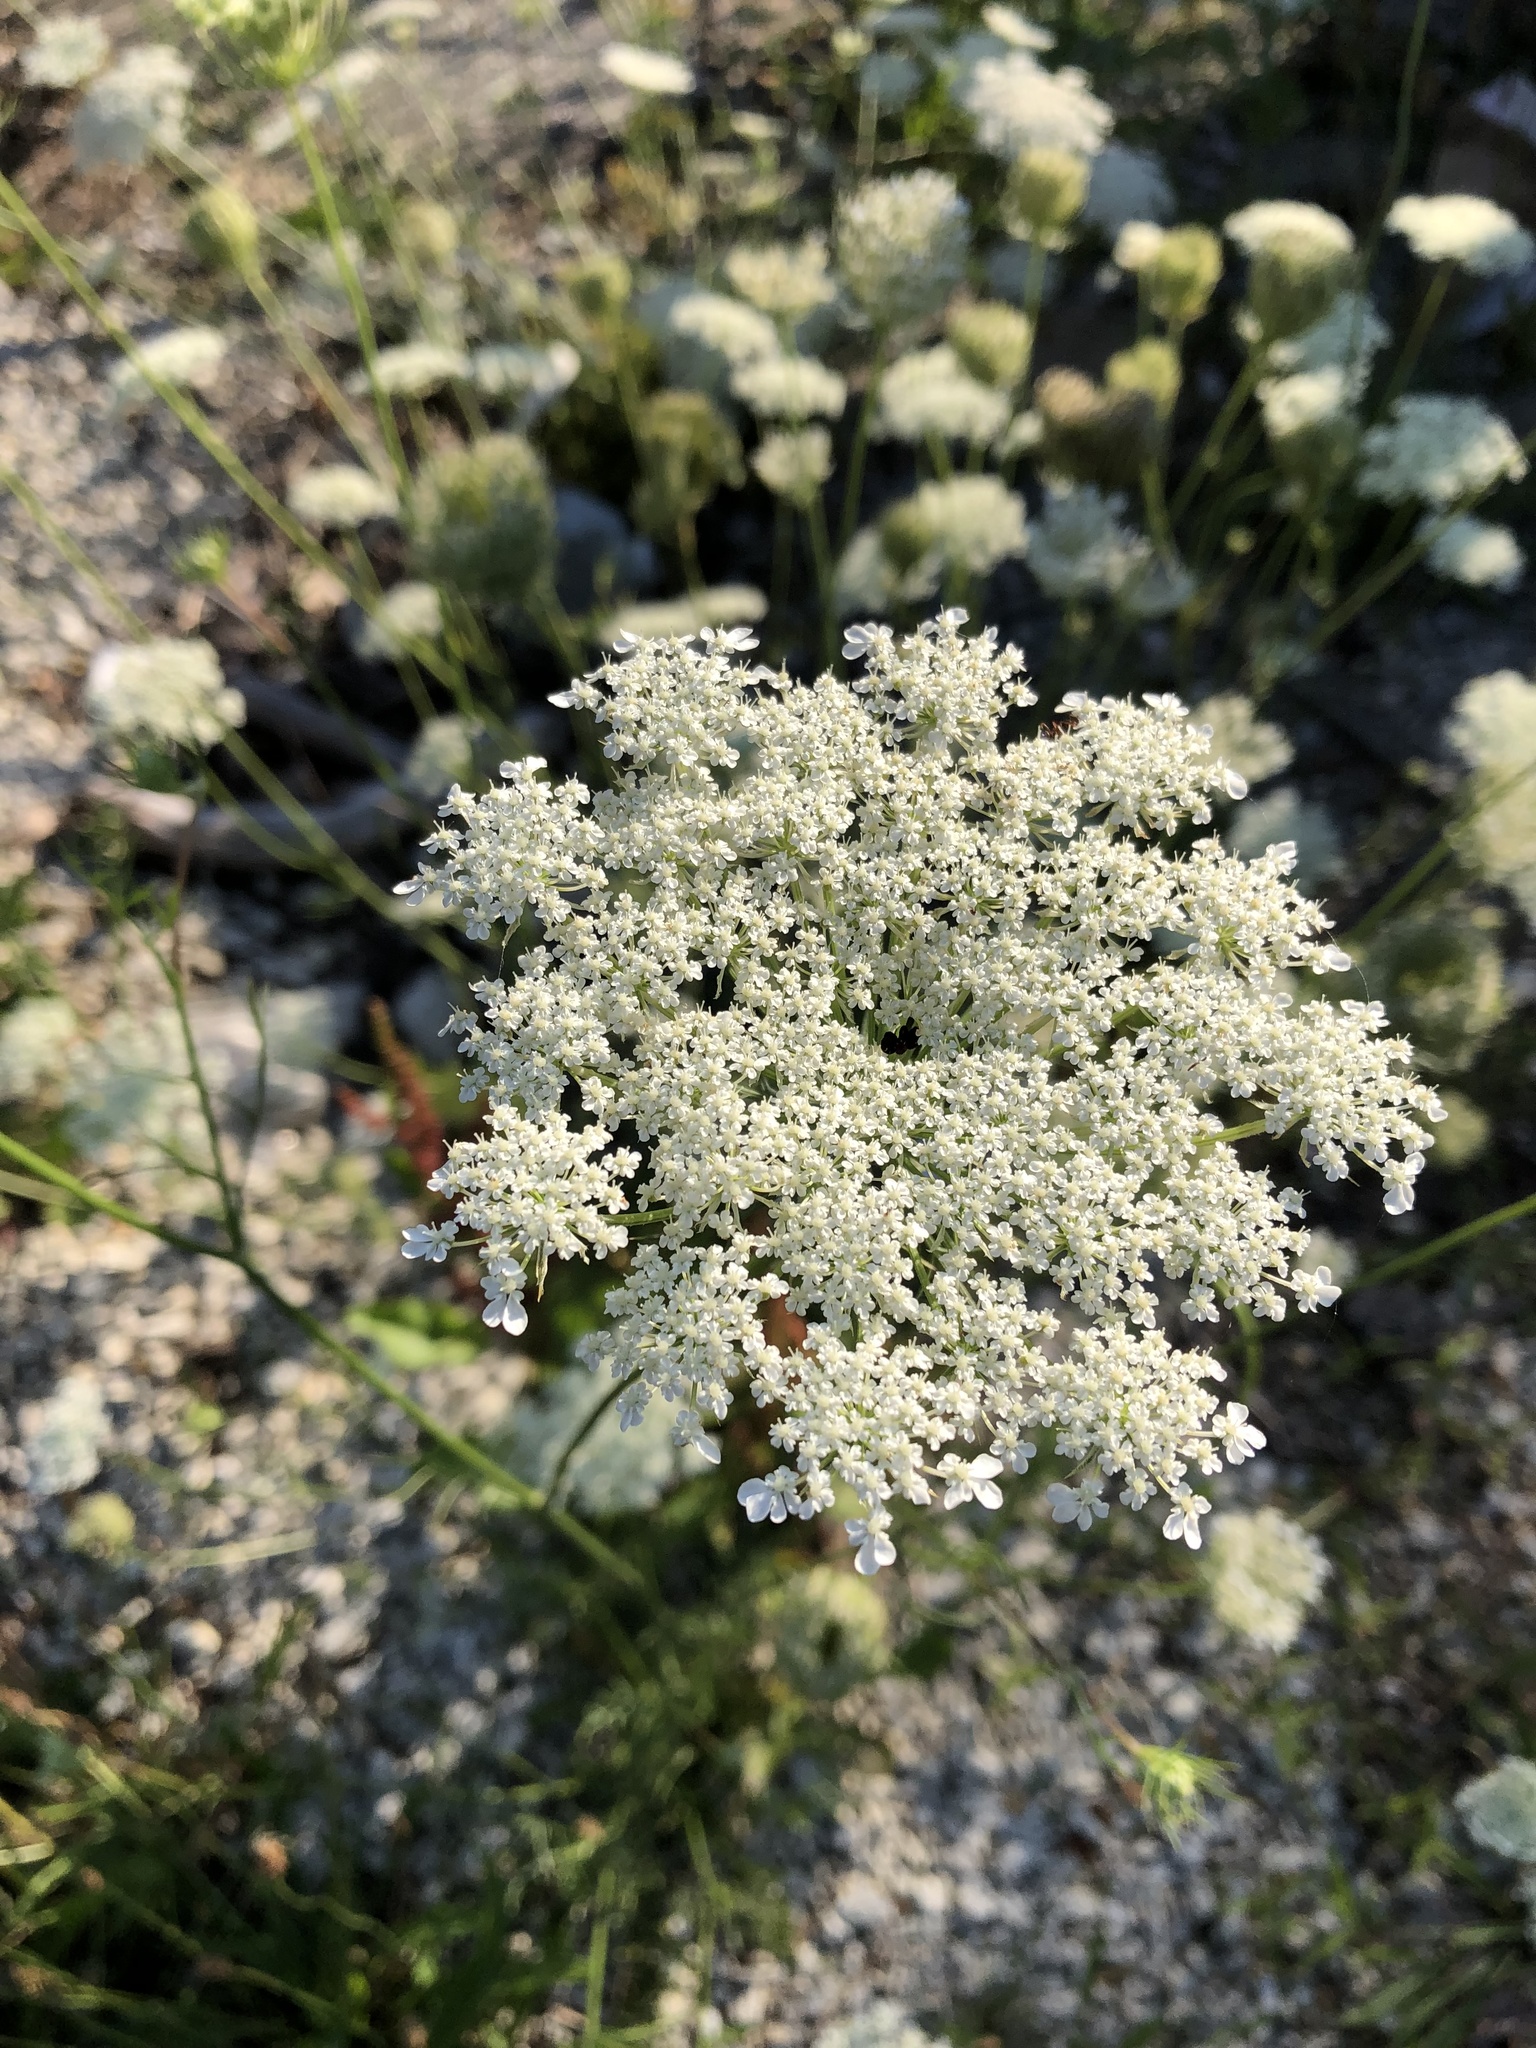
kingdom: Plantae
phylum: Tracheophyta
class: Magnoliopsida
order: Apiales
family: Apiaceae
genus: Daucus
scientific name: Daucus carota
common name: Wild carrot
